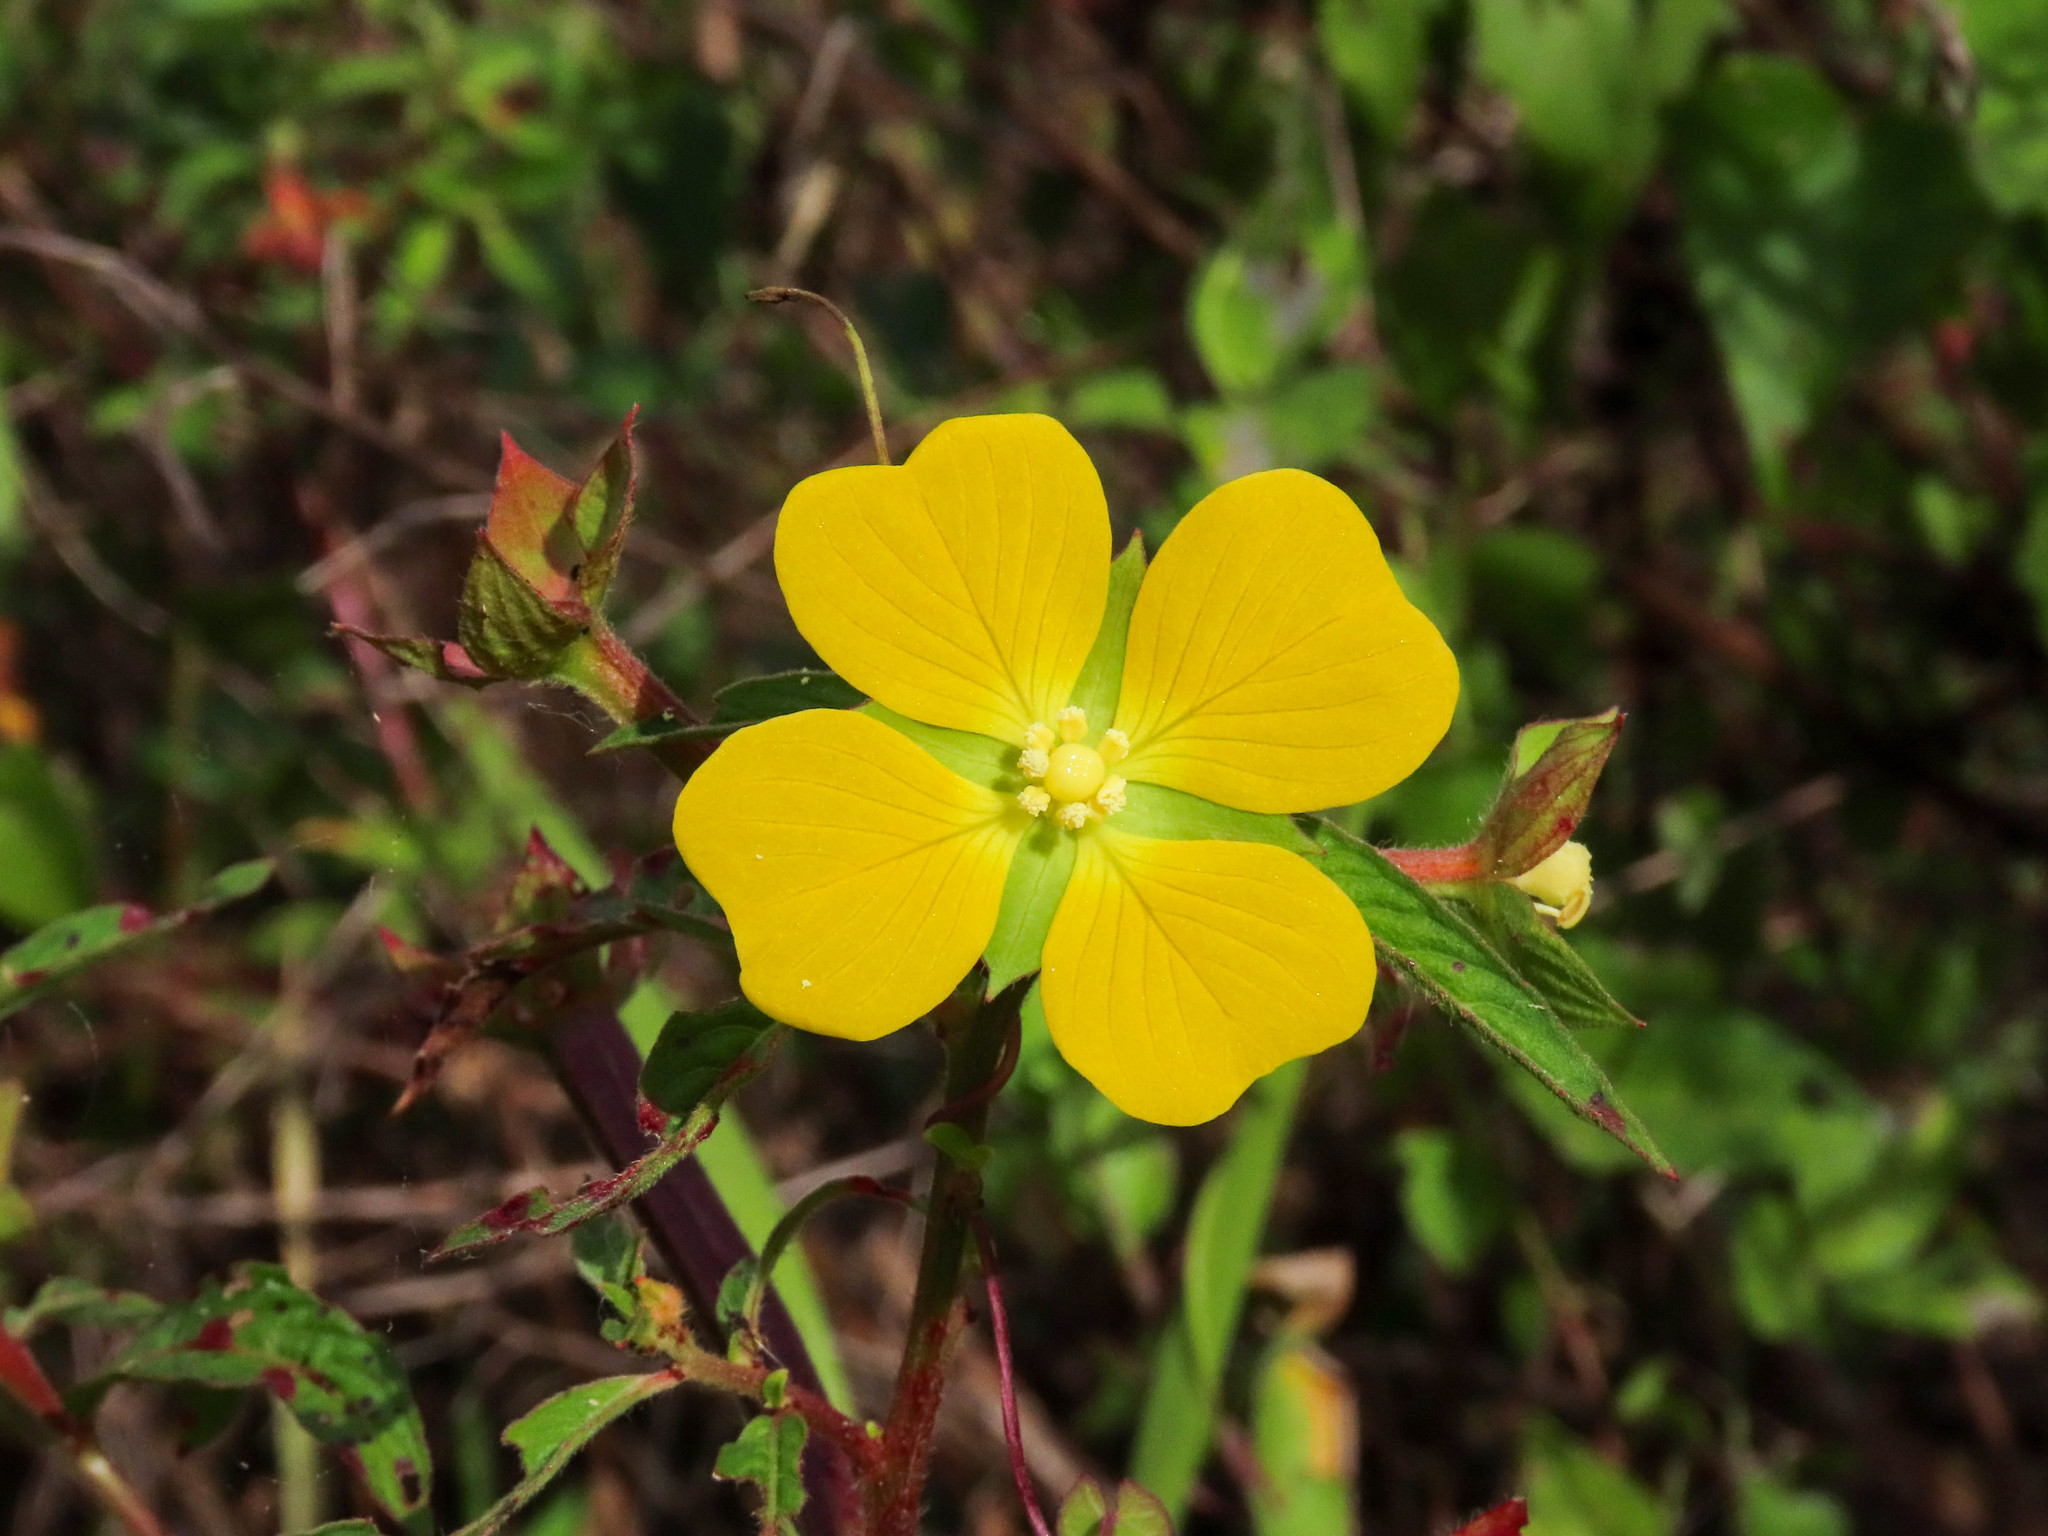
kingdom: Plantae
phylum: Tracheophyta
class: Magnoliopsida
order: Myrtales
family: Onagraceae
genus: Ludwigia
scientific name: Ludwigia peruviana
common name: Peruvian primrose-willow
